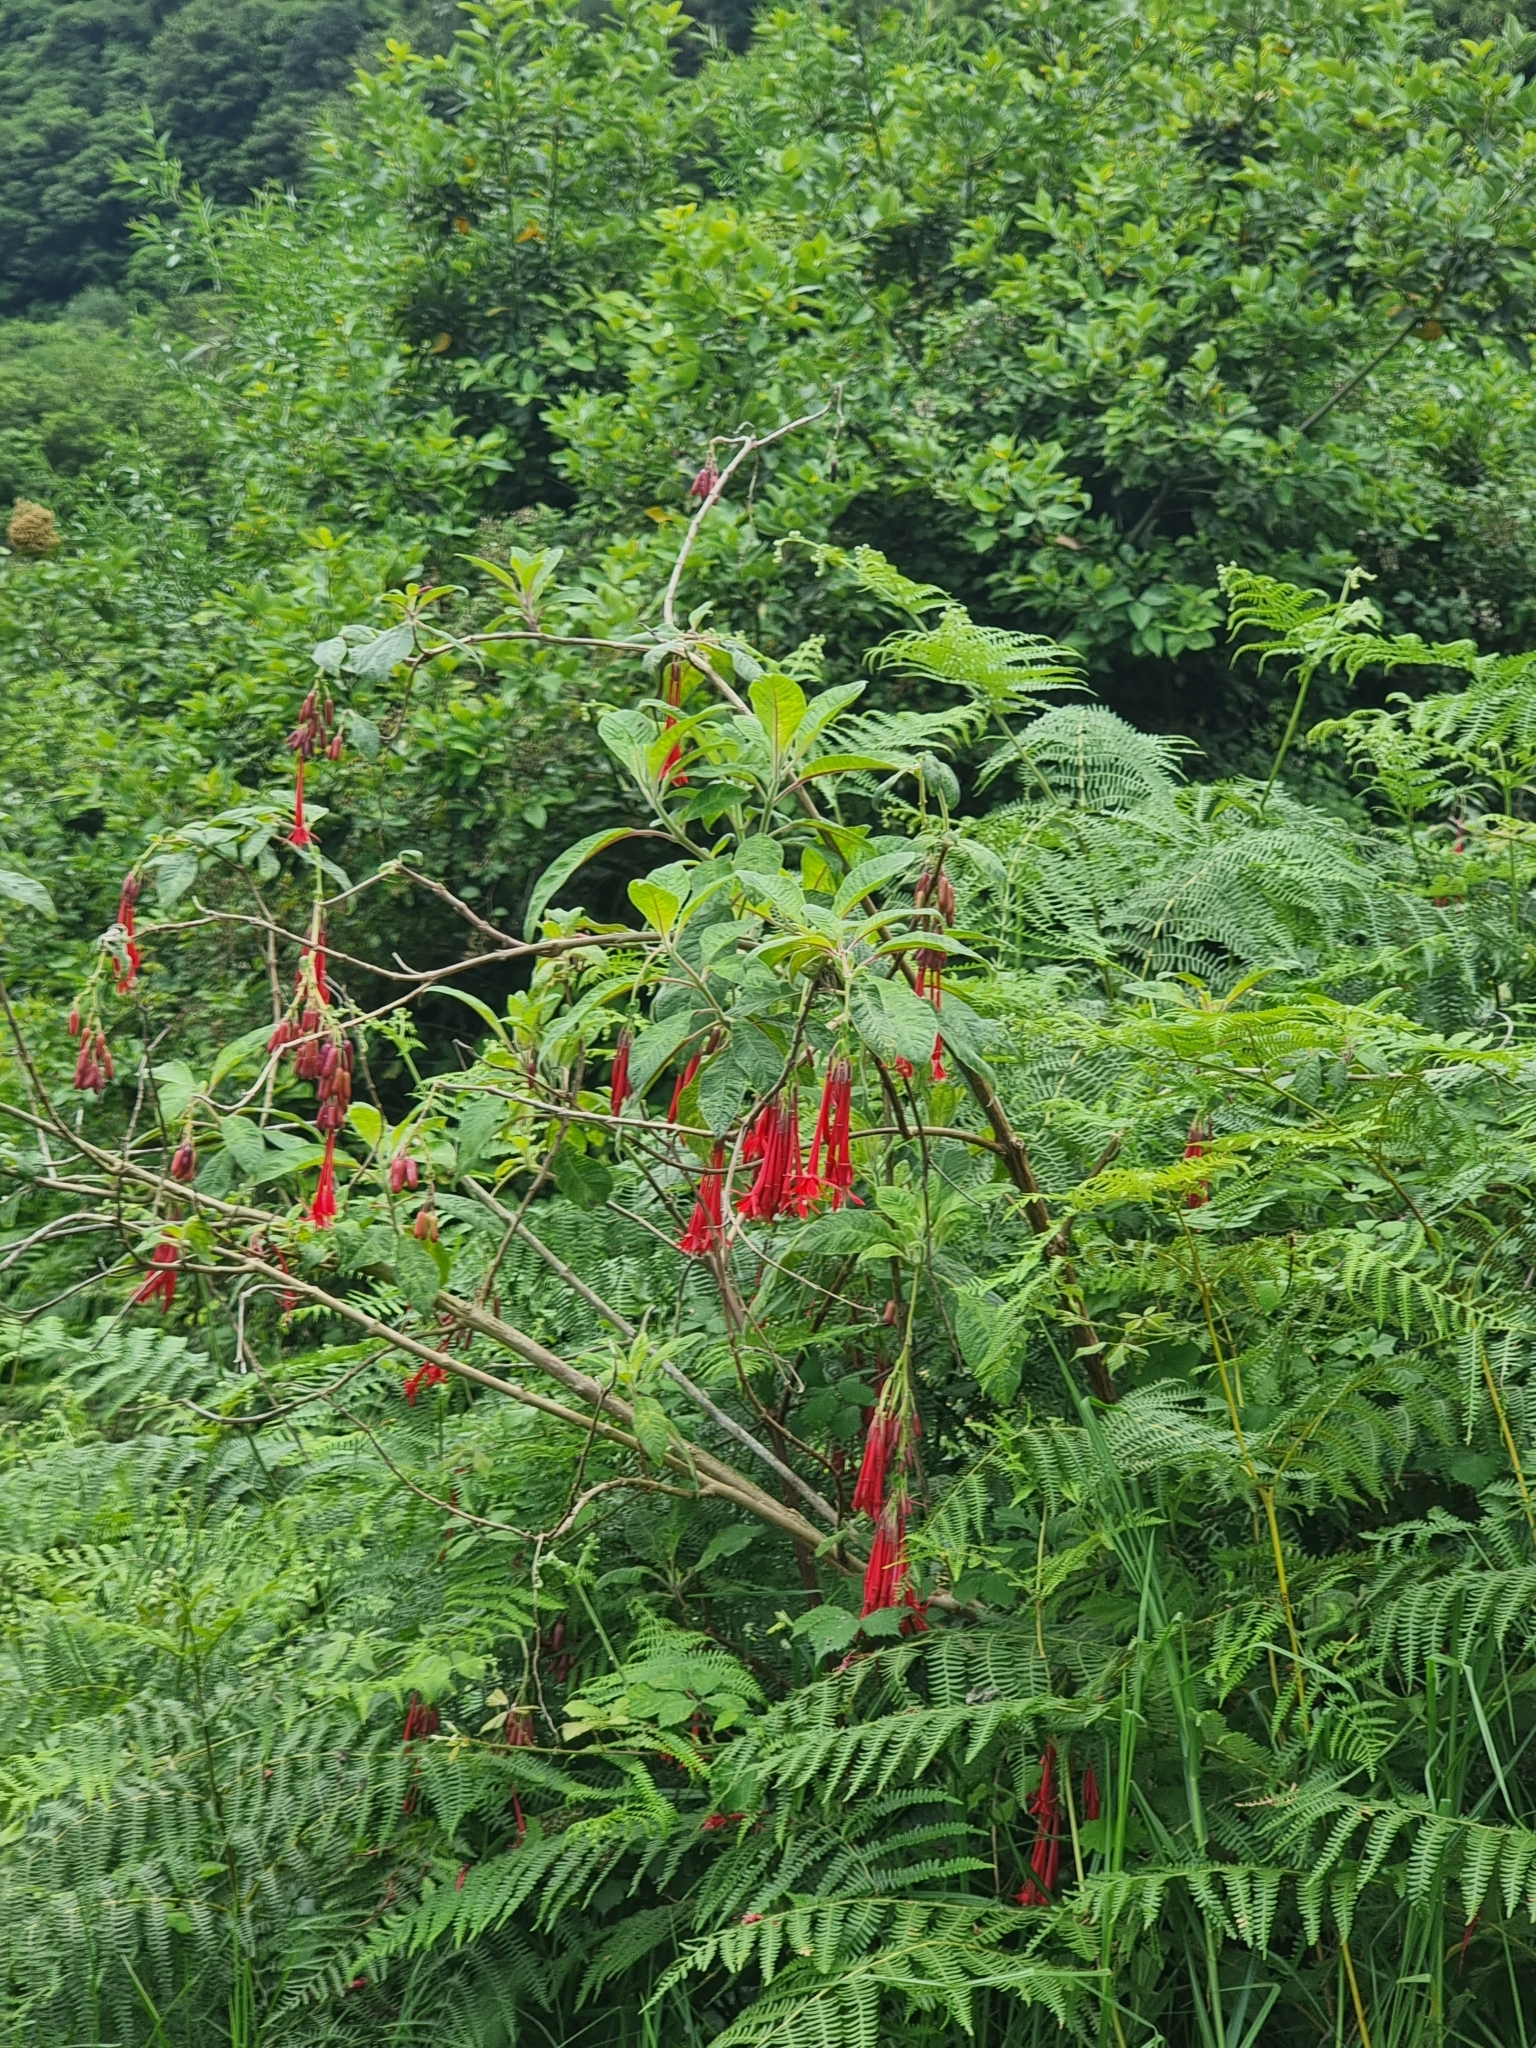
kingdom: Plantae
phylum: Tracheophyta
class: Magnoliopsida
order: Myrtales
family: Onagraceae
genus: Fuchsia
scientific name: Fuchsia boliviana
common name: Bolivian fuchsia
